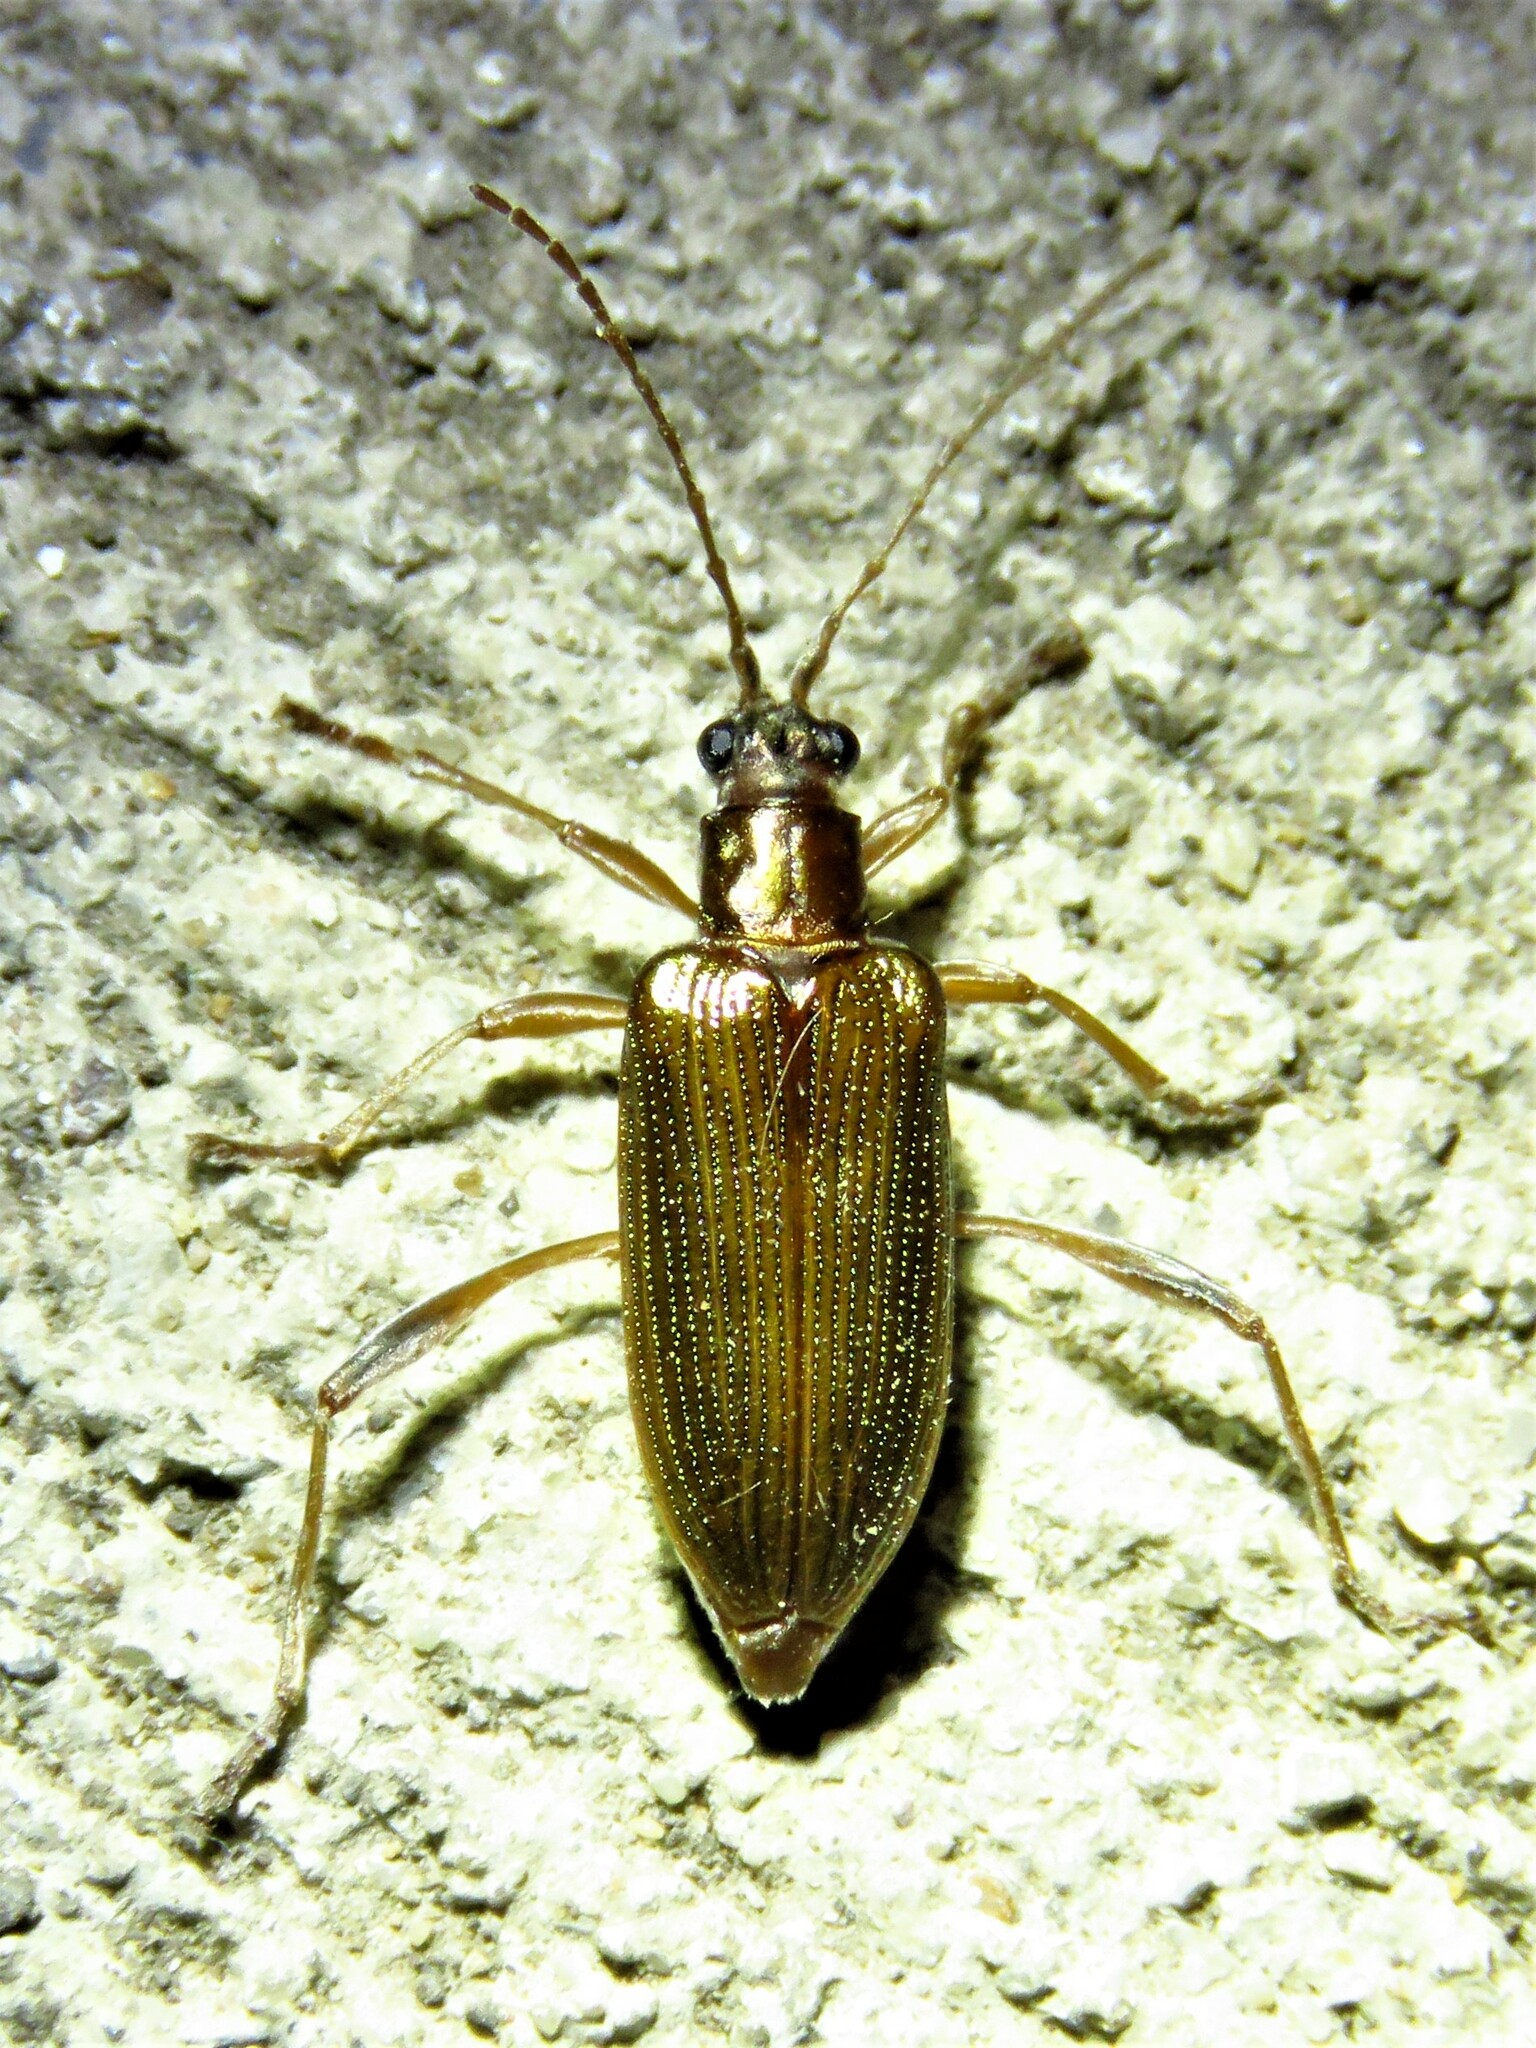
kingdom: Animalia
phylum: Arthropoda
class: Insecta
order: Coleoptera
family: Chrysomelidae
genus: Donacia
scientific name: Donacia edentata
